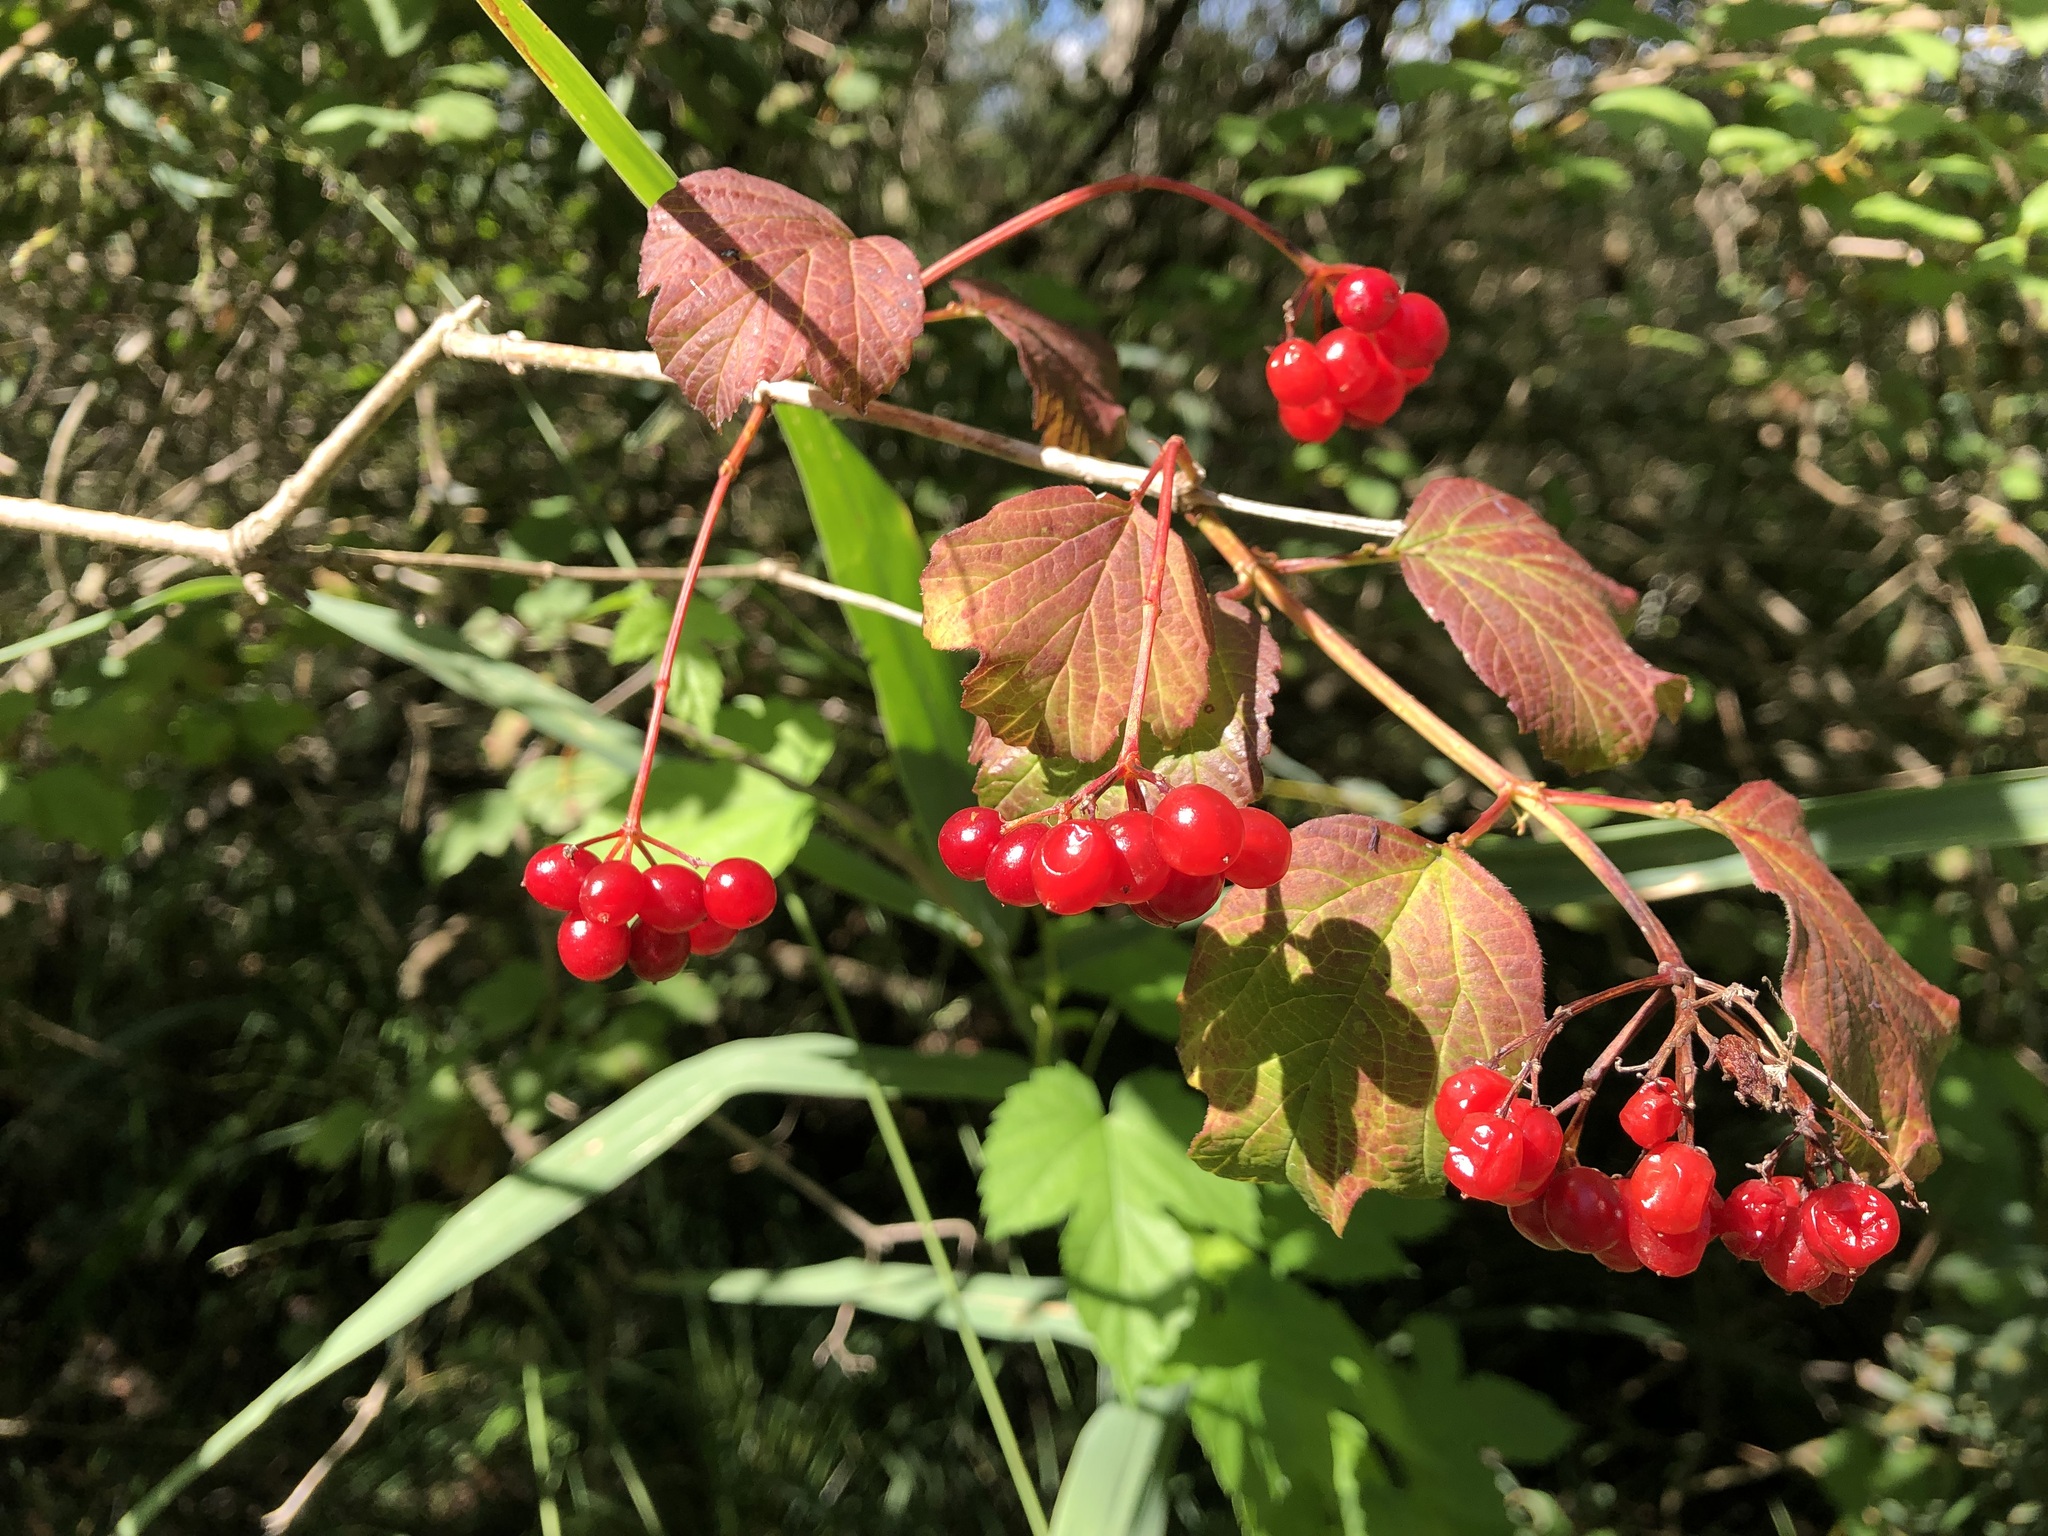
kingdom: Plantae
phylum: Tracheophyta
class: Magnoliopsida
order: Dipsacales
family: Viburnaceae
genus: Viburnum
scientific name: Viburnum opulus
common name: Guelder-rose
